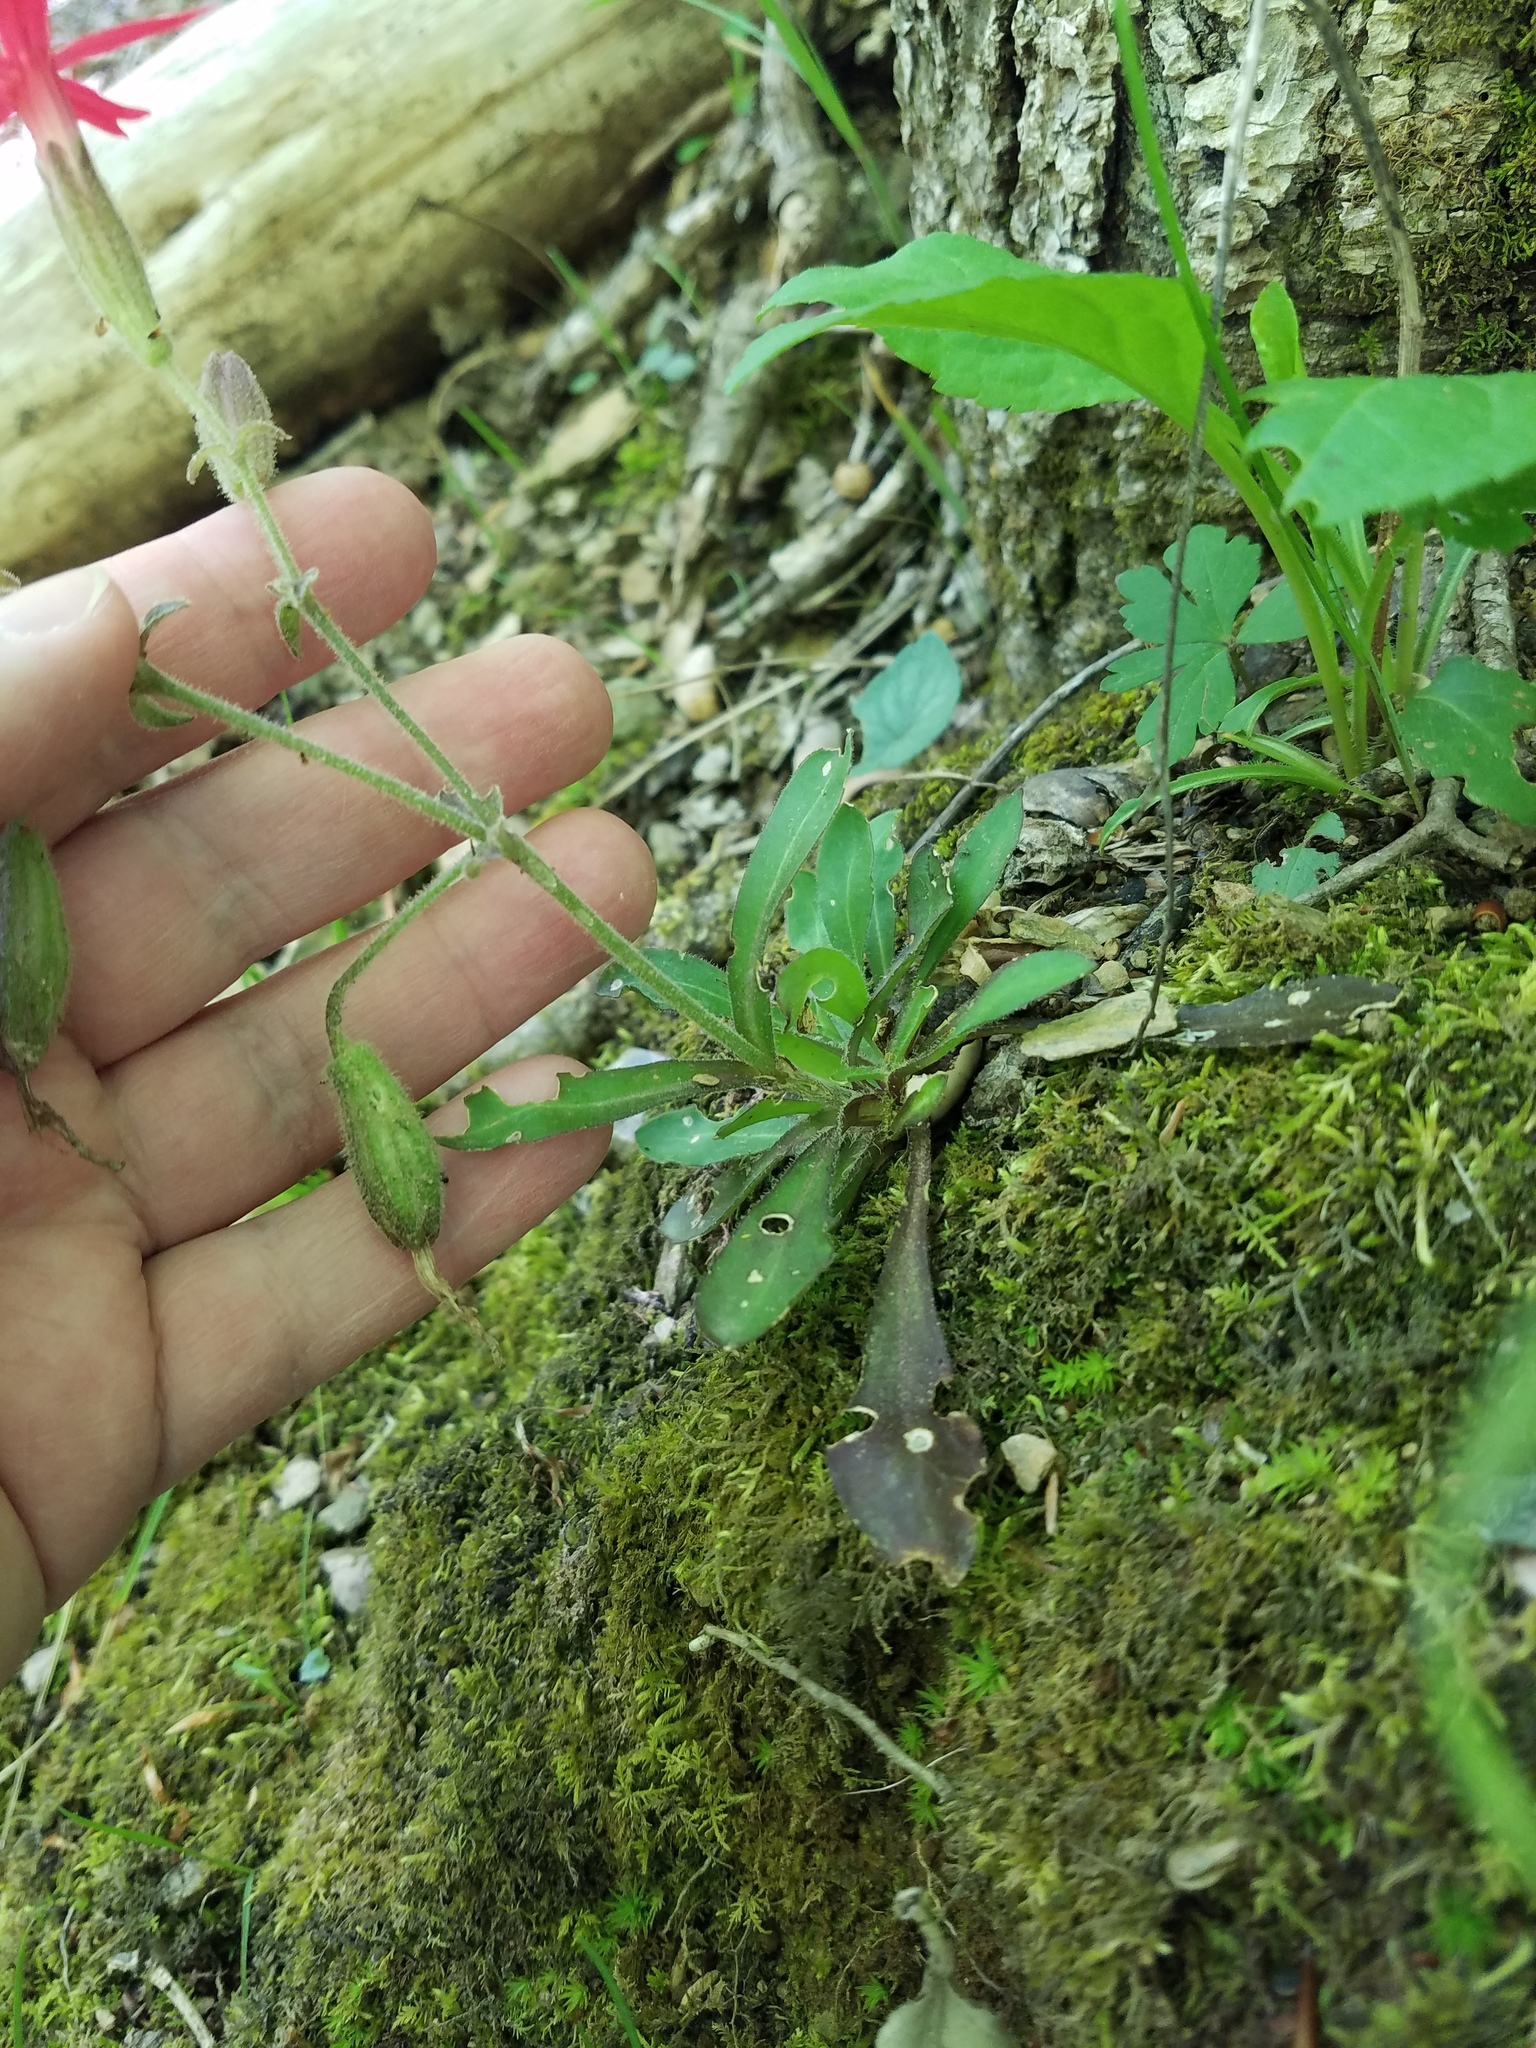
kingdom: Plantae
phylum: Tracheophyta
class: Magnoliopsida
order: Caryophyllales
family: Caryophyllaceae
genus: Silene
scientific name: Silene virginica
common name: Fire-pink
